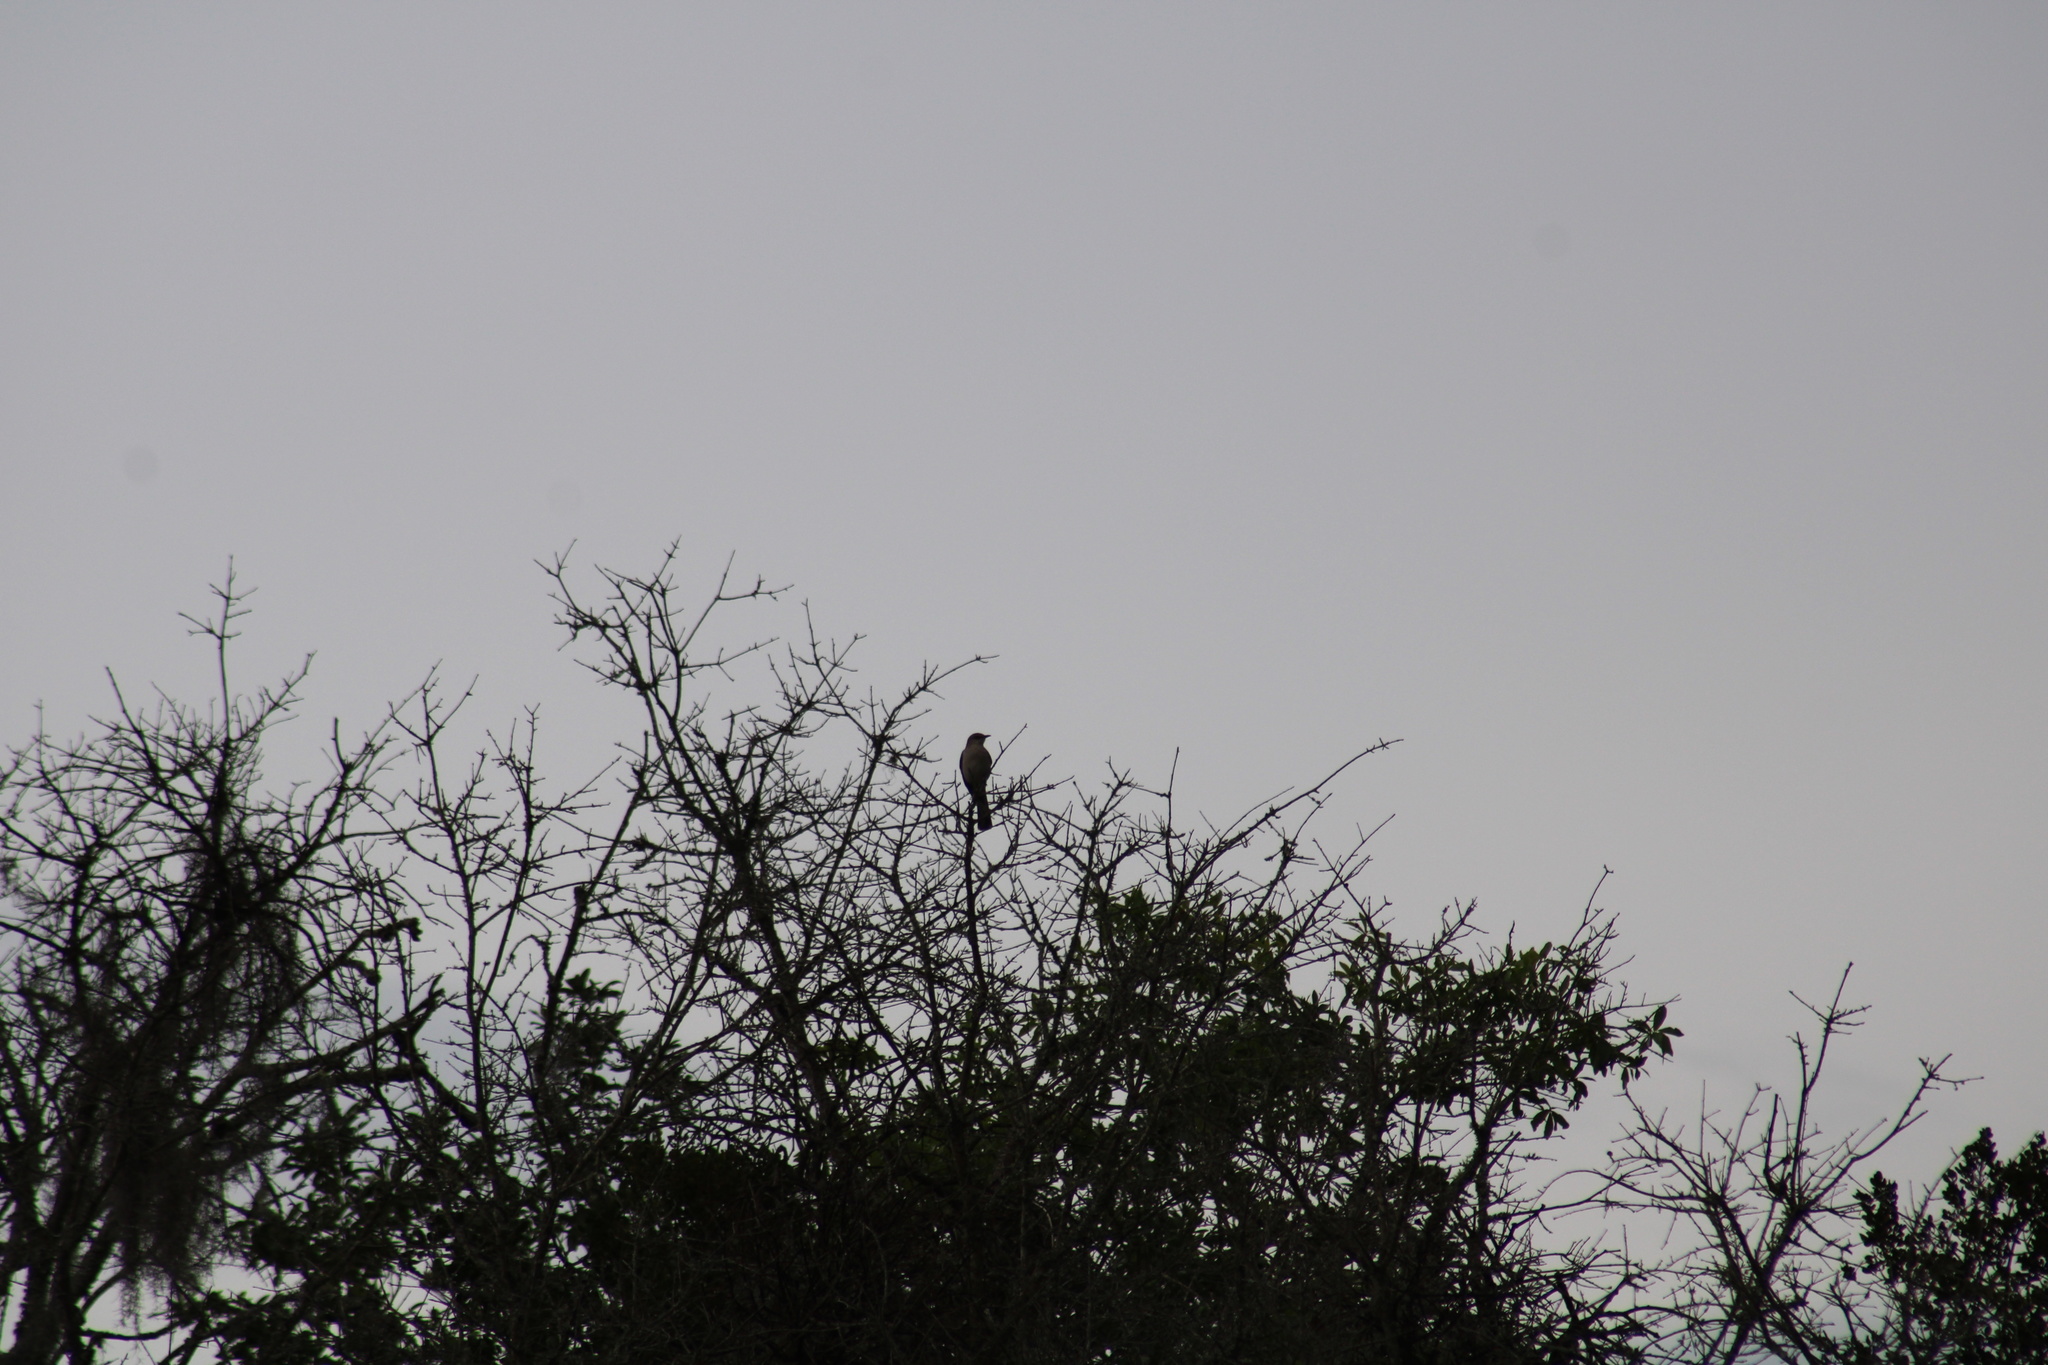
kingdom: Animalia
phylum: Chordata
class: Aves
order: Passeriformes
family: Mimidae
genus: Mimus
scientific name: Mimus polyglottos
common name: Northern mockingbird
